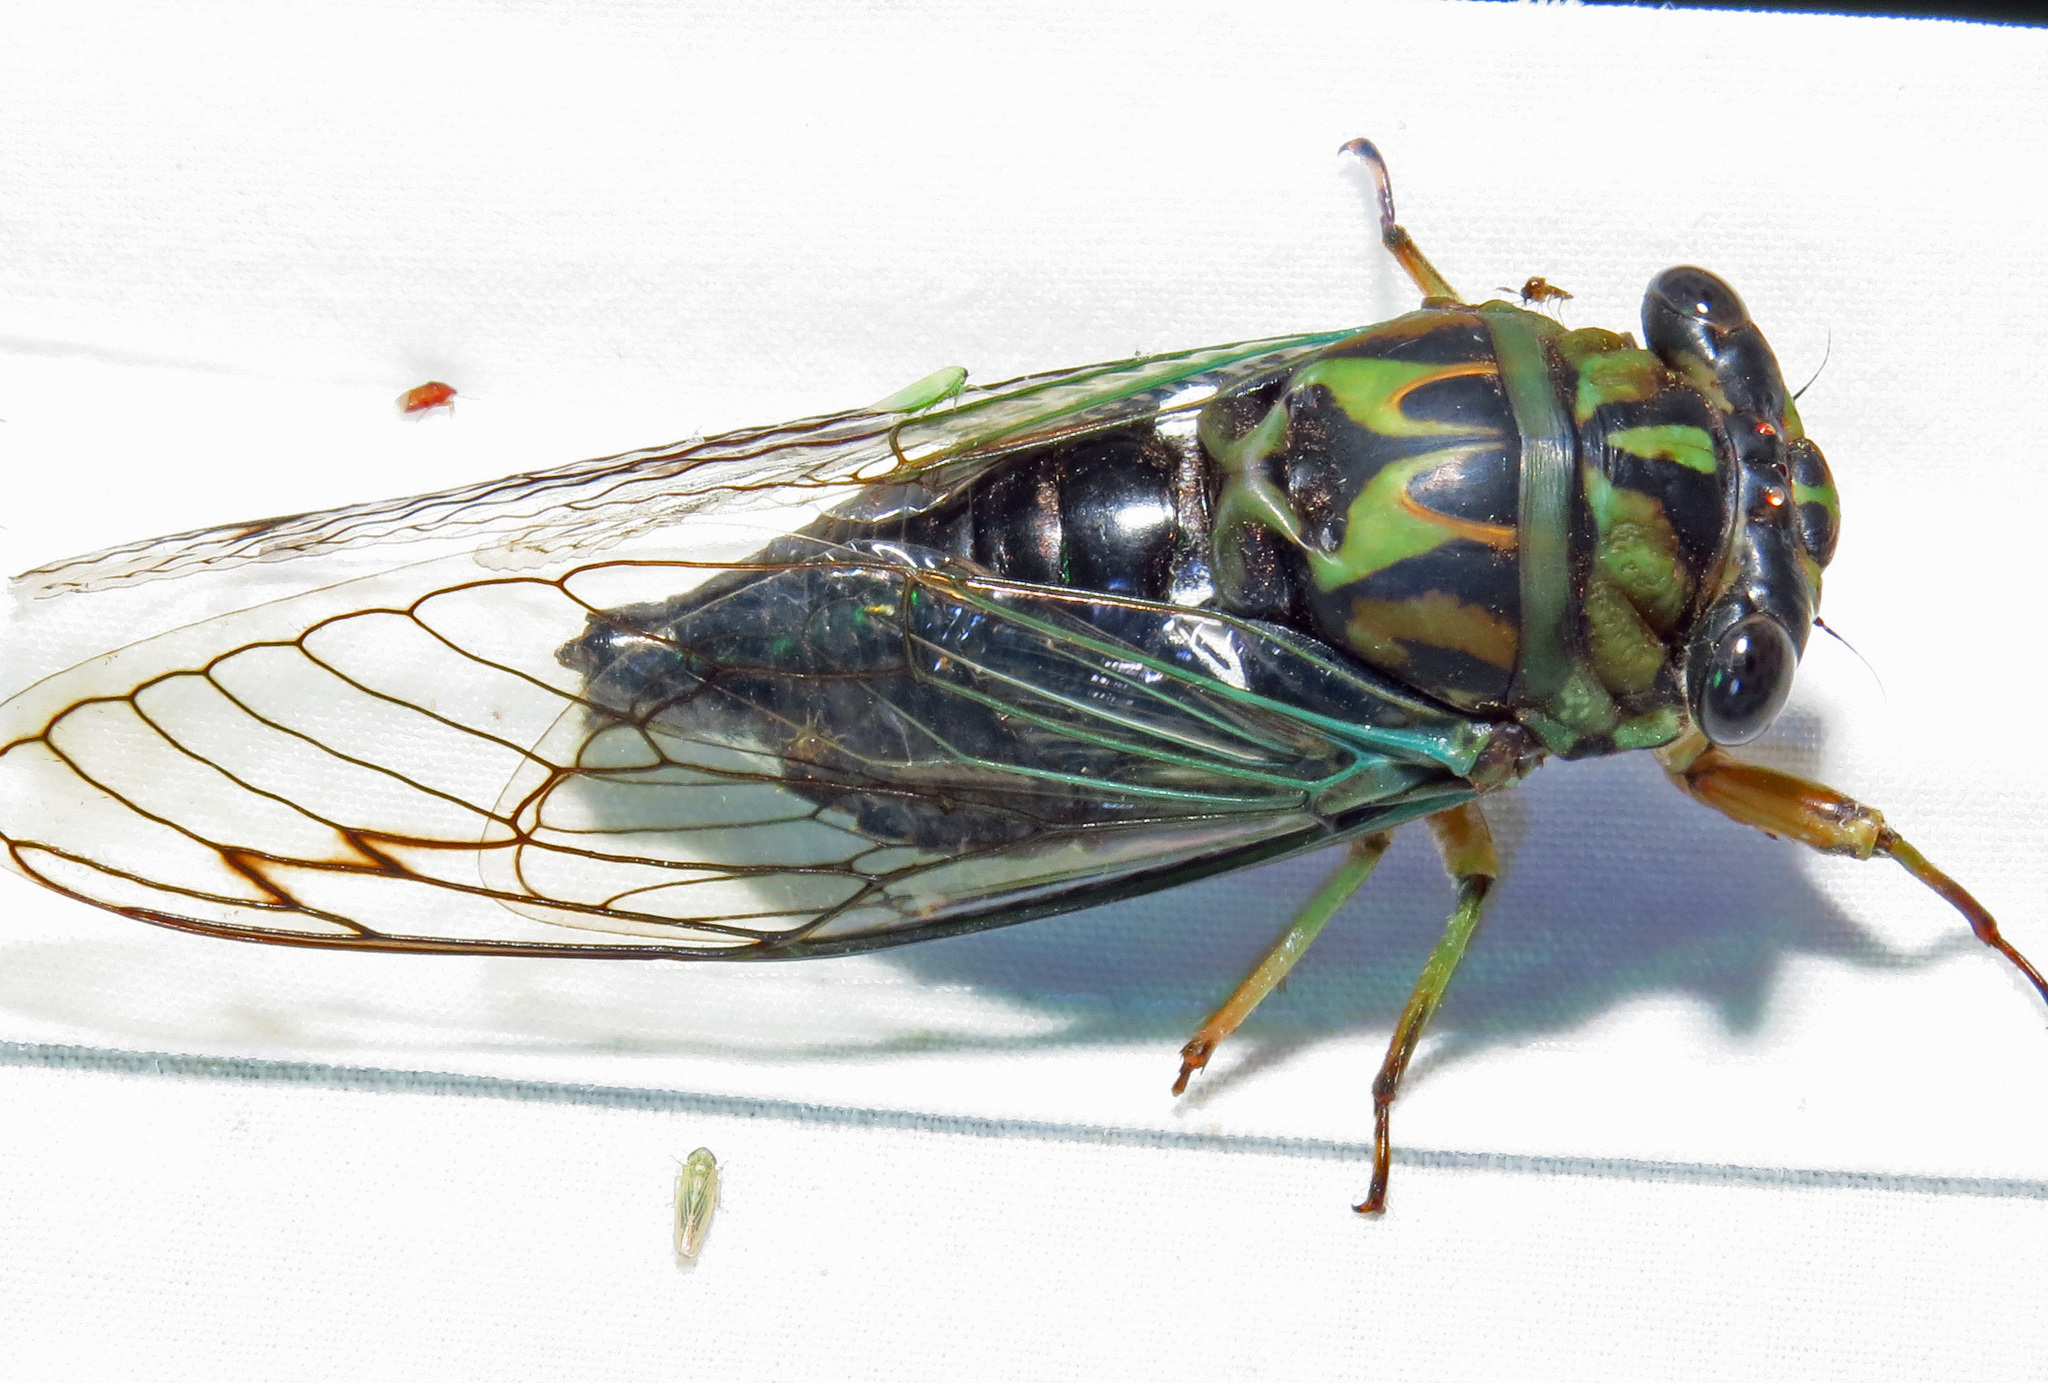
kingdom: Animalia
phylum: Arthropoda
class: Insecta
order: Hemiptera
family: Cicadidae
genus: Neotibicen
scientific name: Neotibicen robinsonianus
